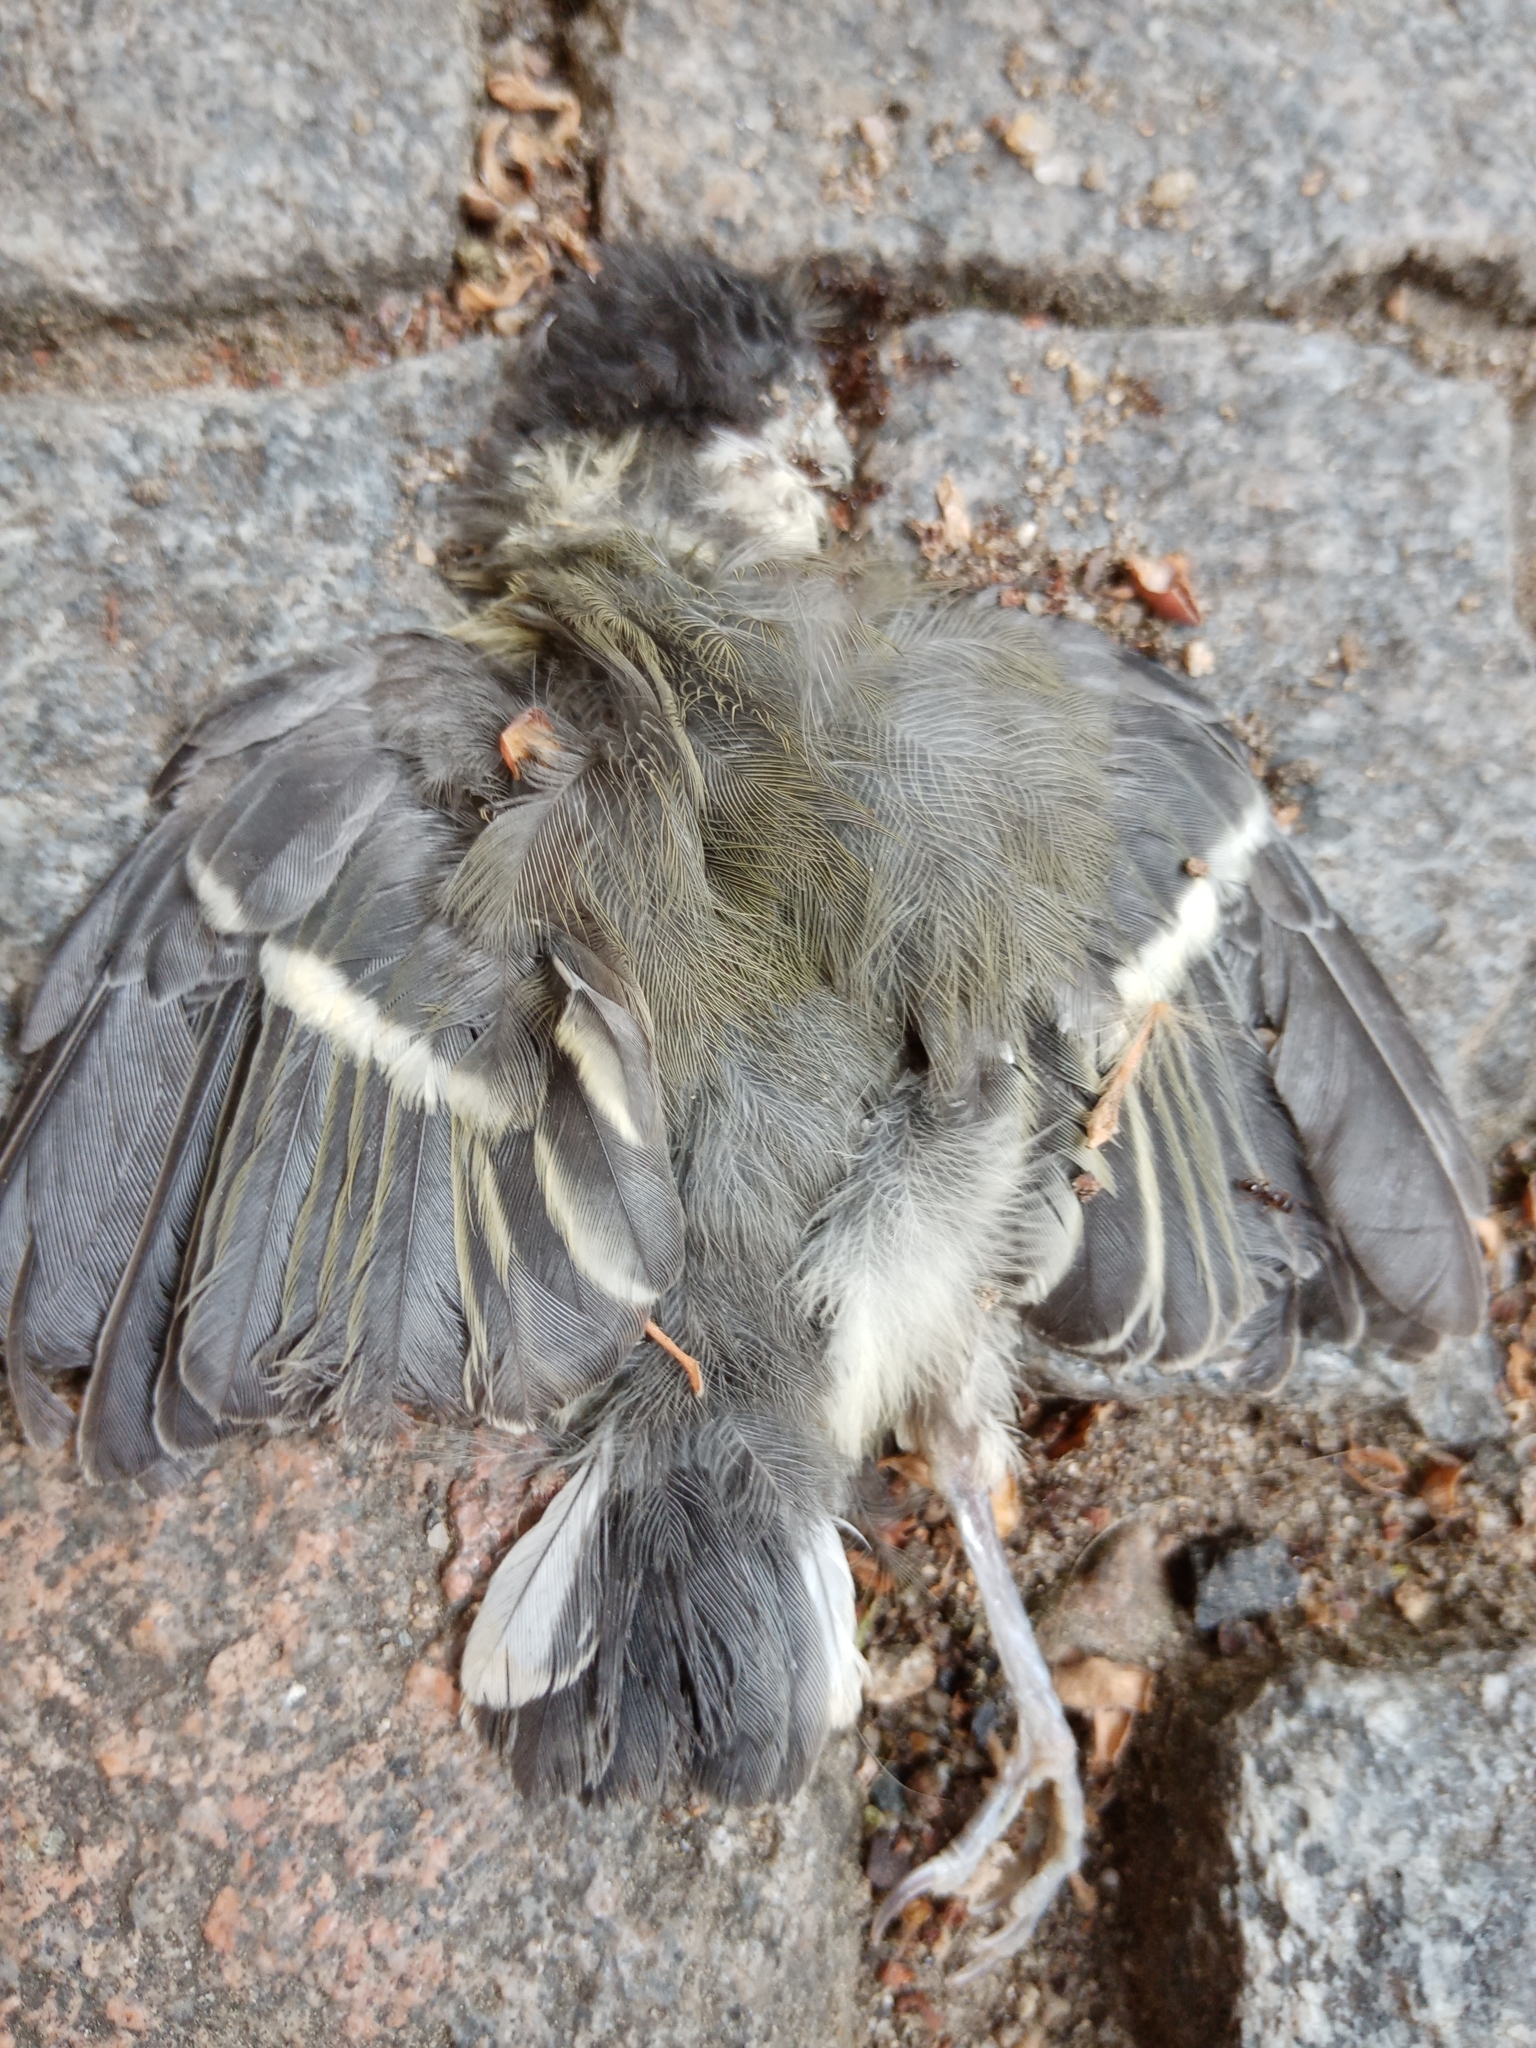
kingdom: Animalia
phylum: Chordata
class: Aves
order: Passeriformes
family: Paridae
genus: Parus
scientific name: Parus major
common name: Great tit
